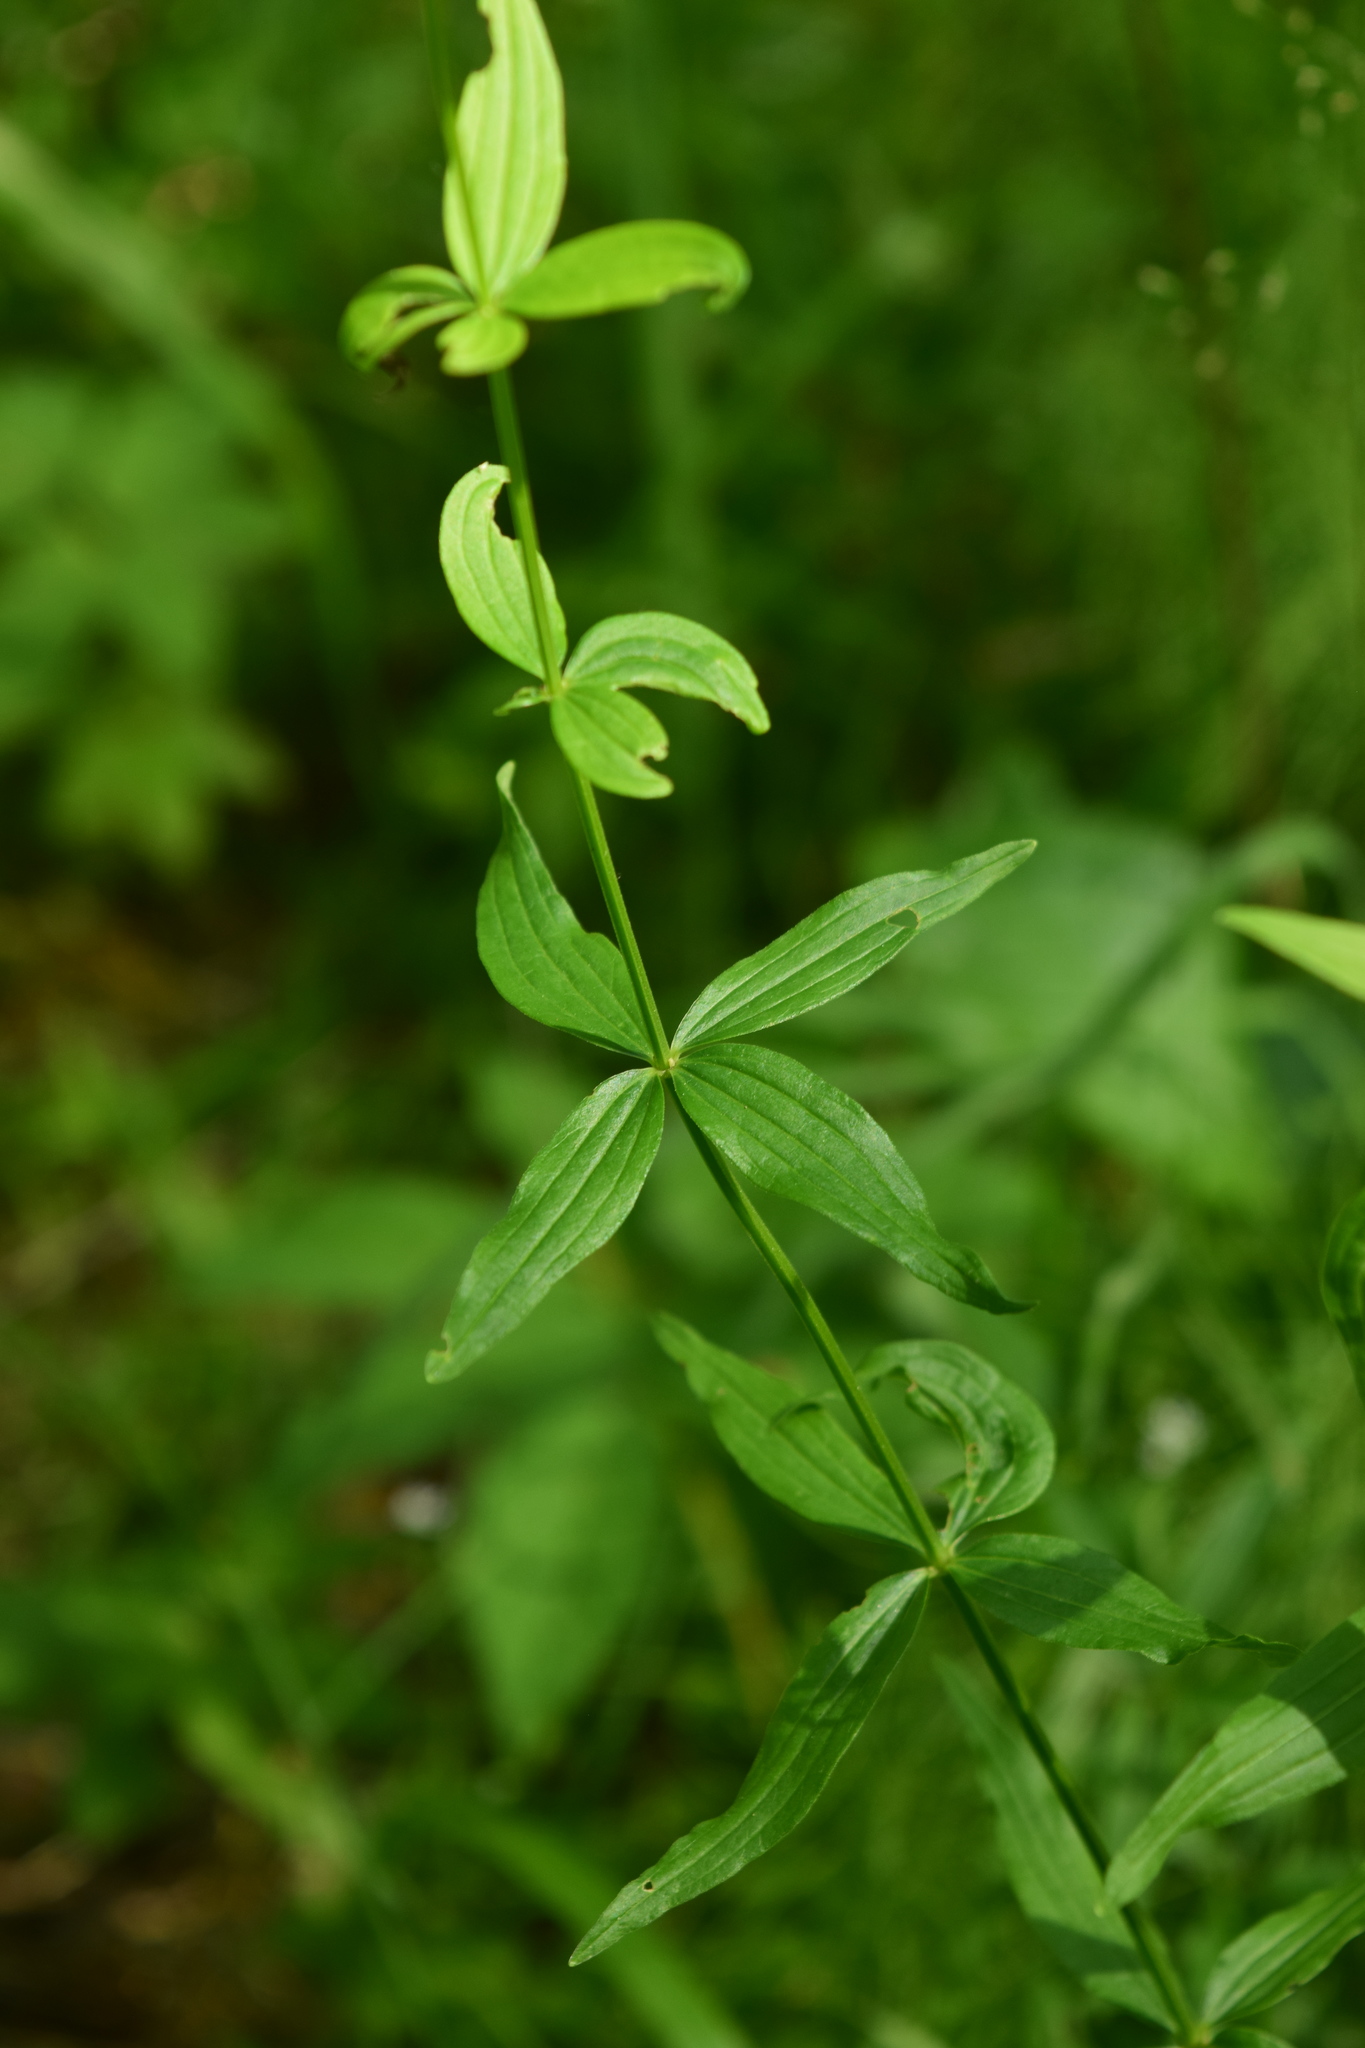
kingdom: Plantae
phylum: Tracheophyta
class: Magnoliopsida
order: Gentianales
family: Rubiaceae
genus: Galium
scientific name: Galium boreale
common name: Northern bedstraw
